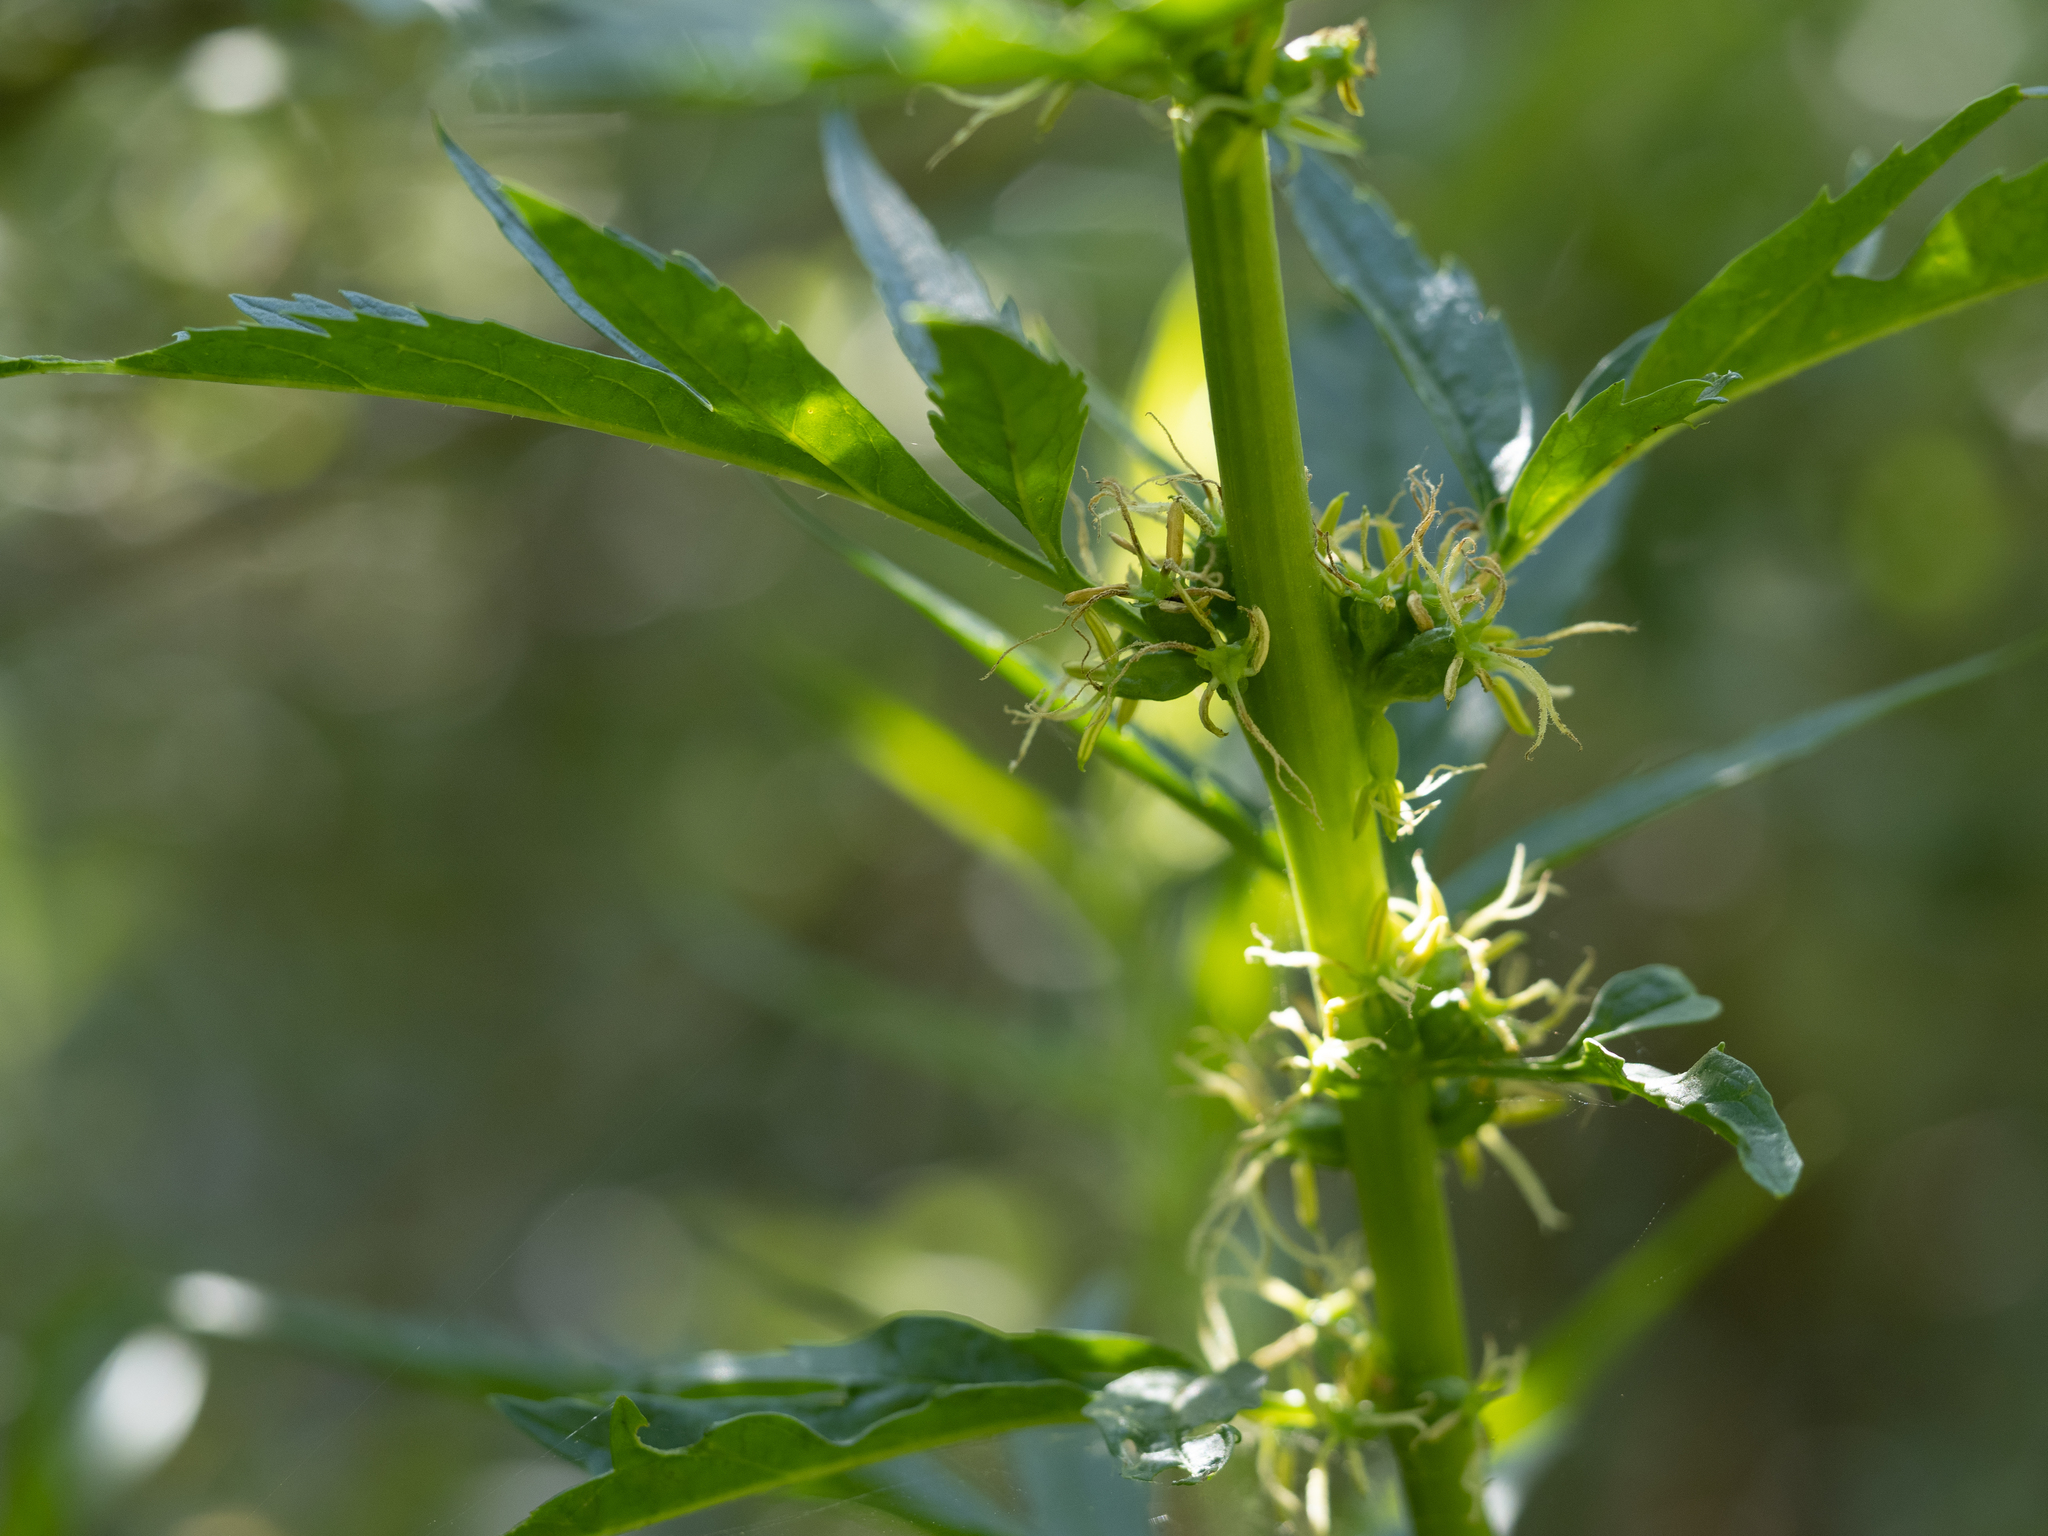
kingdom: Plantae
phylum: Tracheophyta
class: Magnoliopsida
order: Cucurbitales
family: Datiscaceae
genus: Datisca
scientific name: Datisca glomerata
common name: Durango-root
